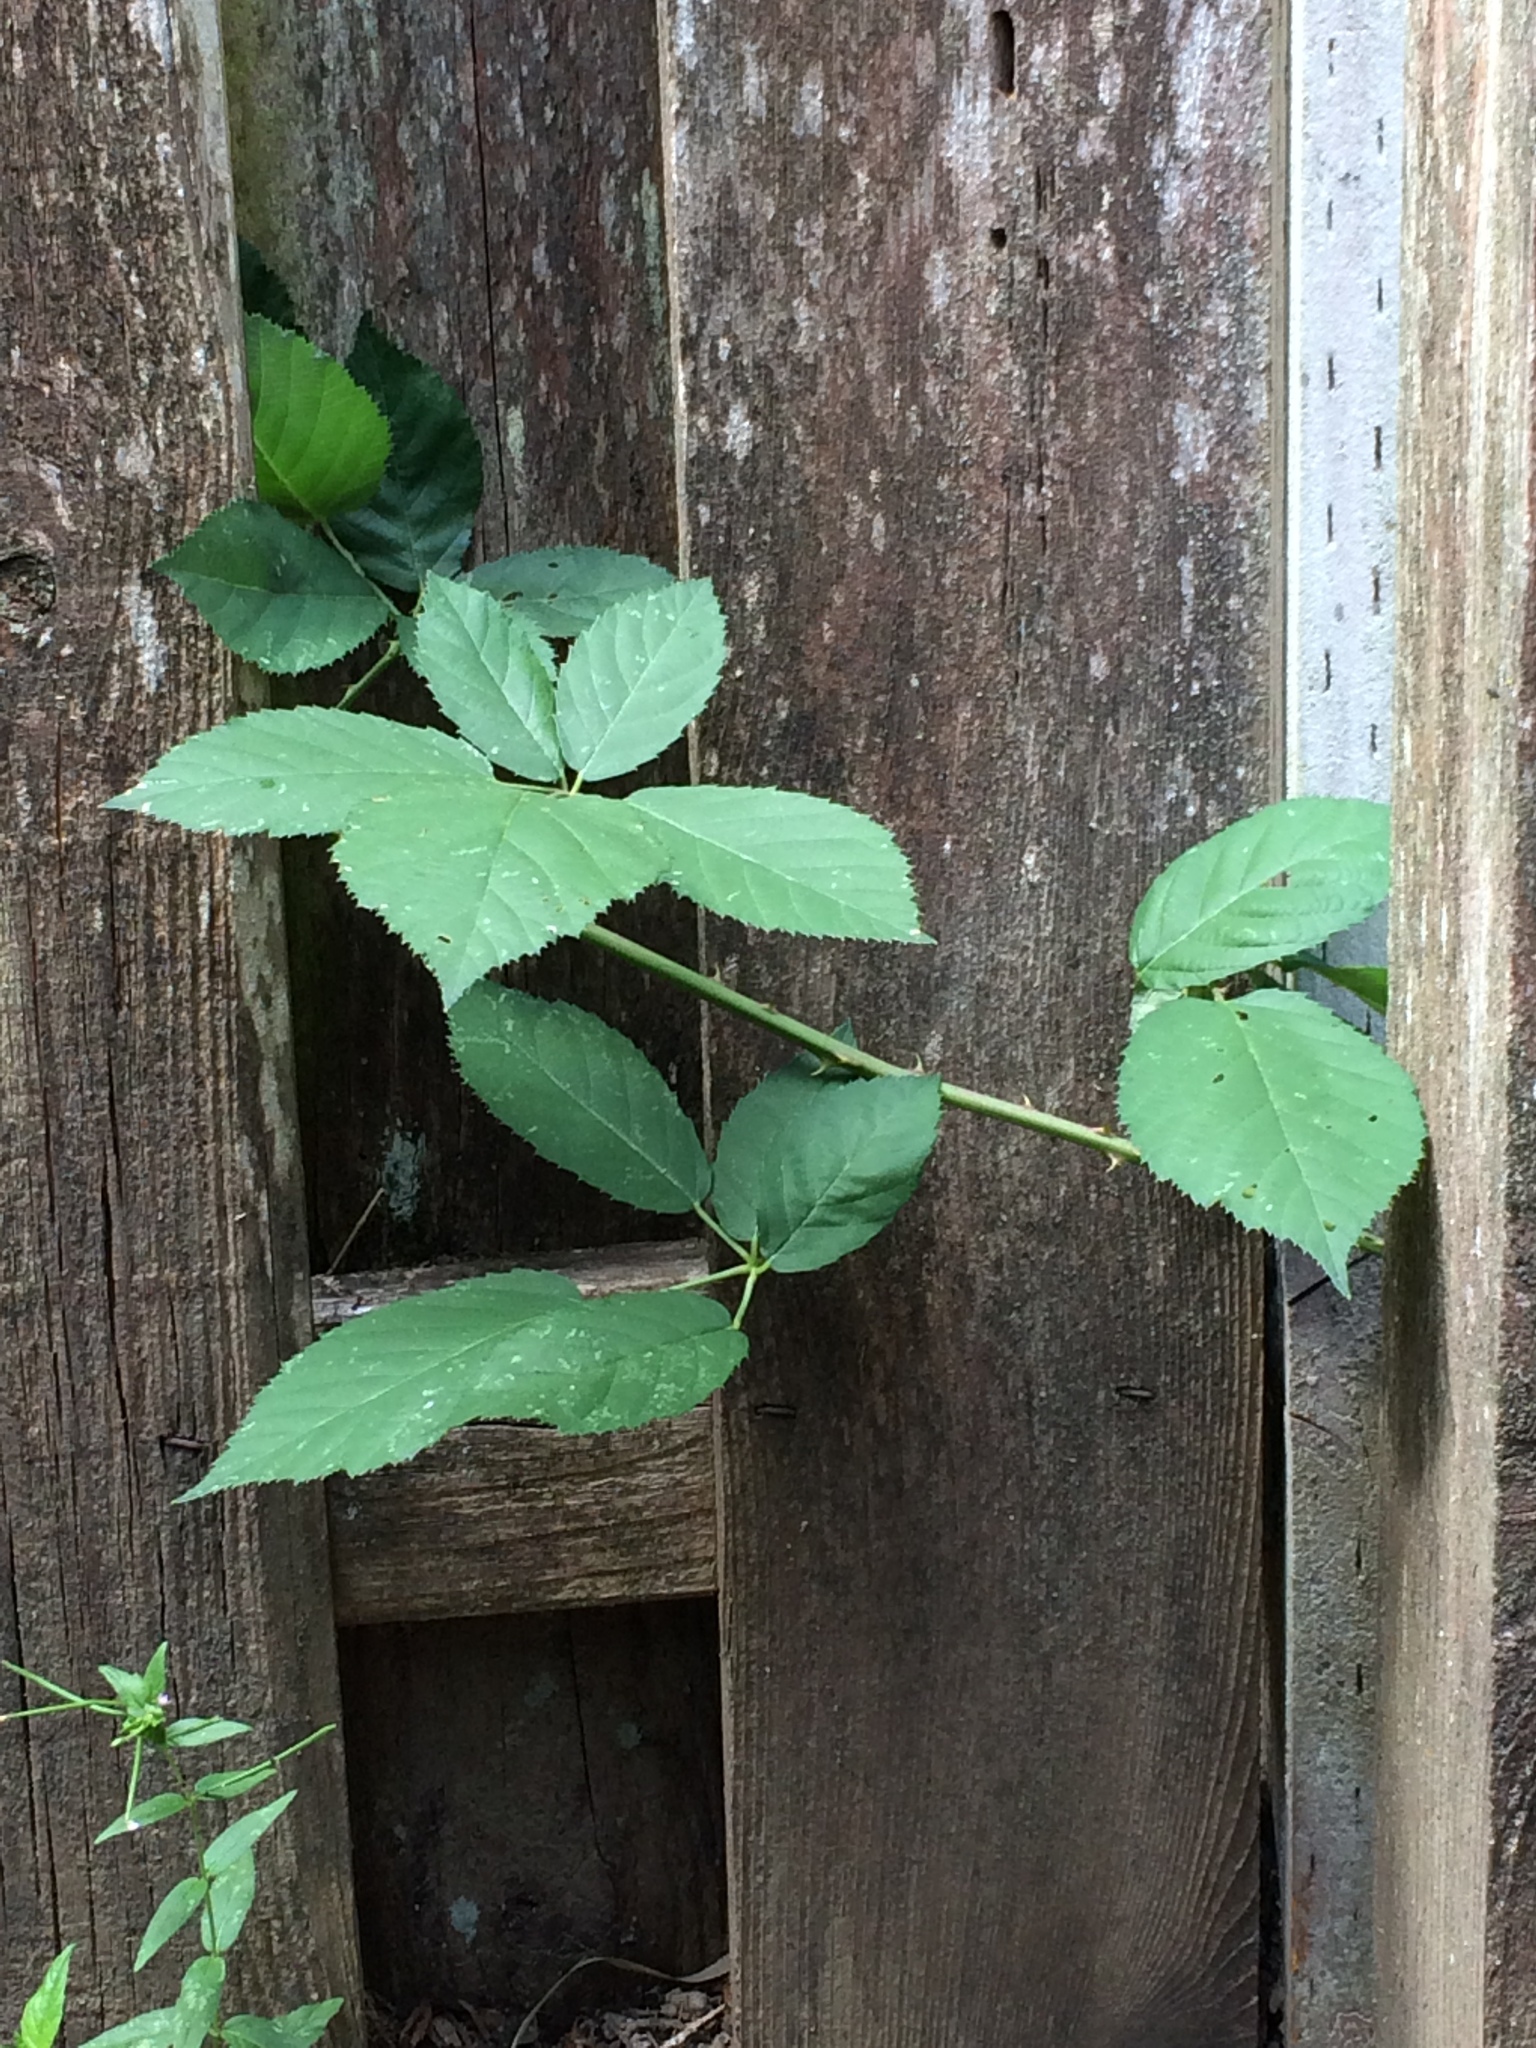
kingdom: Plantae
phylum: Tracheophyta
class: Magnoliopsida
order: Rosales
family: Rosaceae
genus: Rubus
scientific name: Rubus armeniacus
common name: Himalayan blackberry
